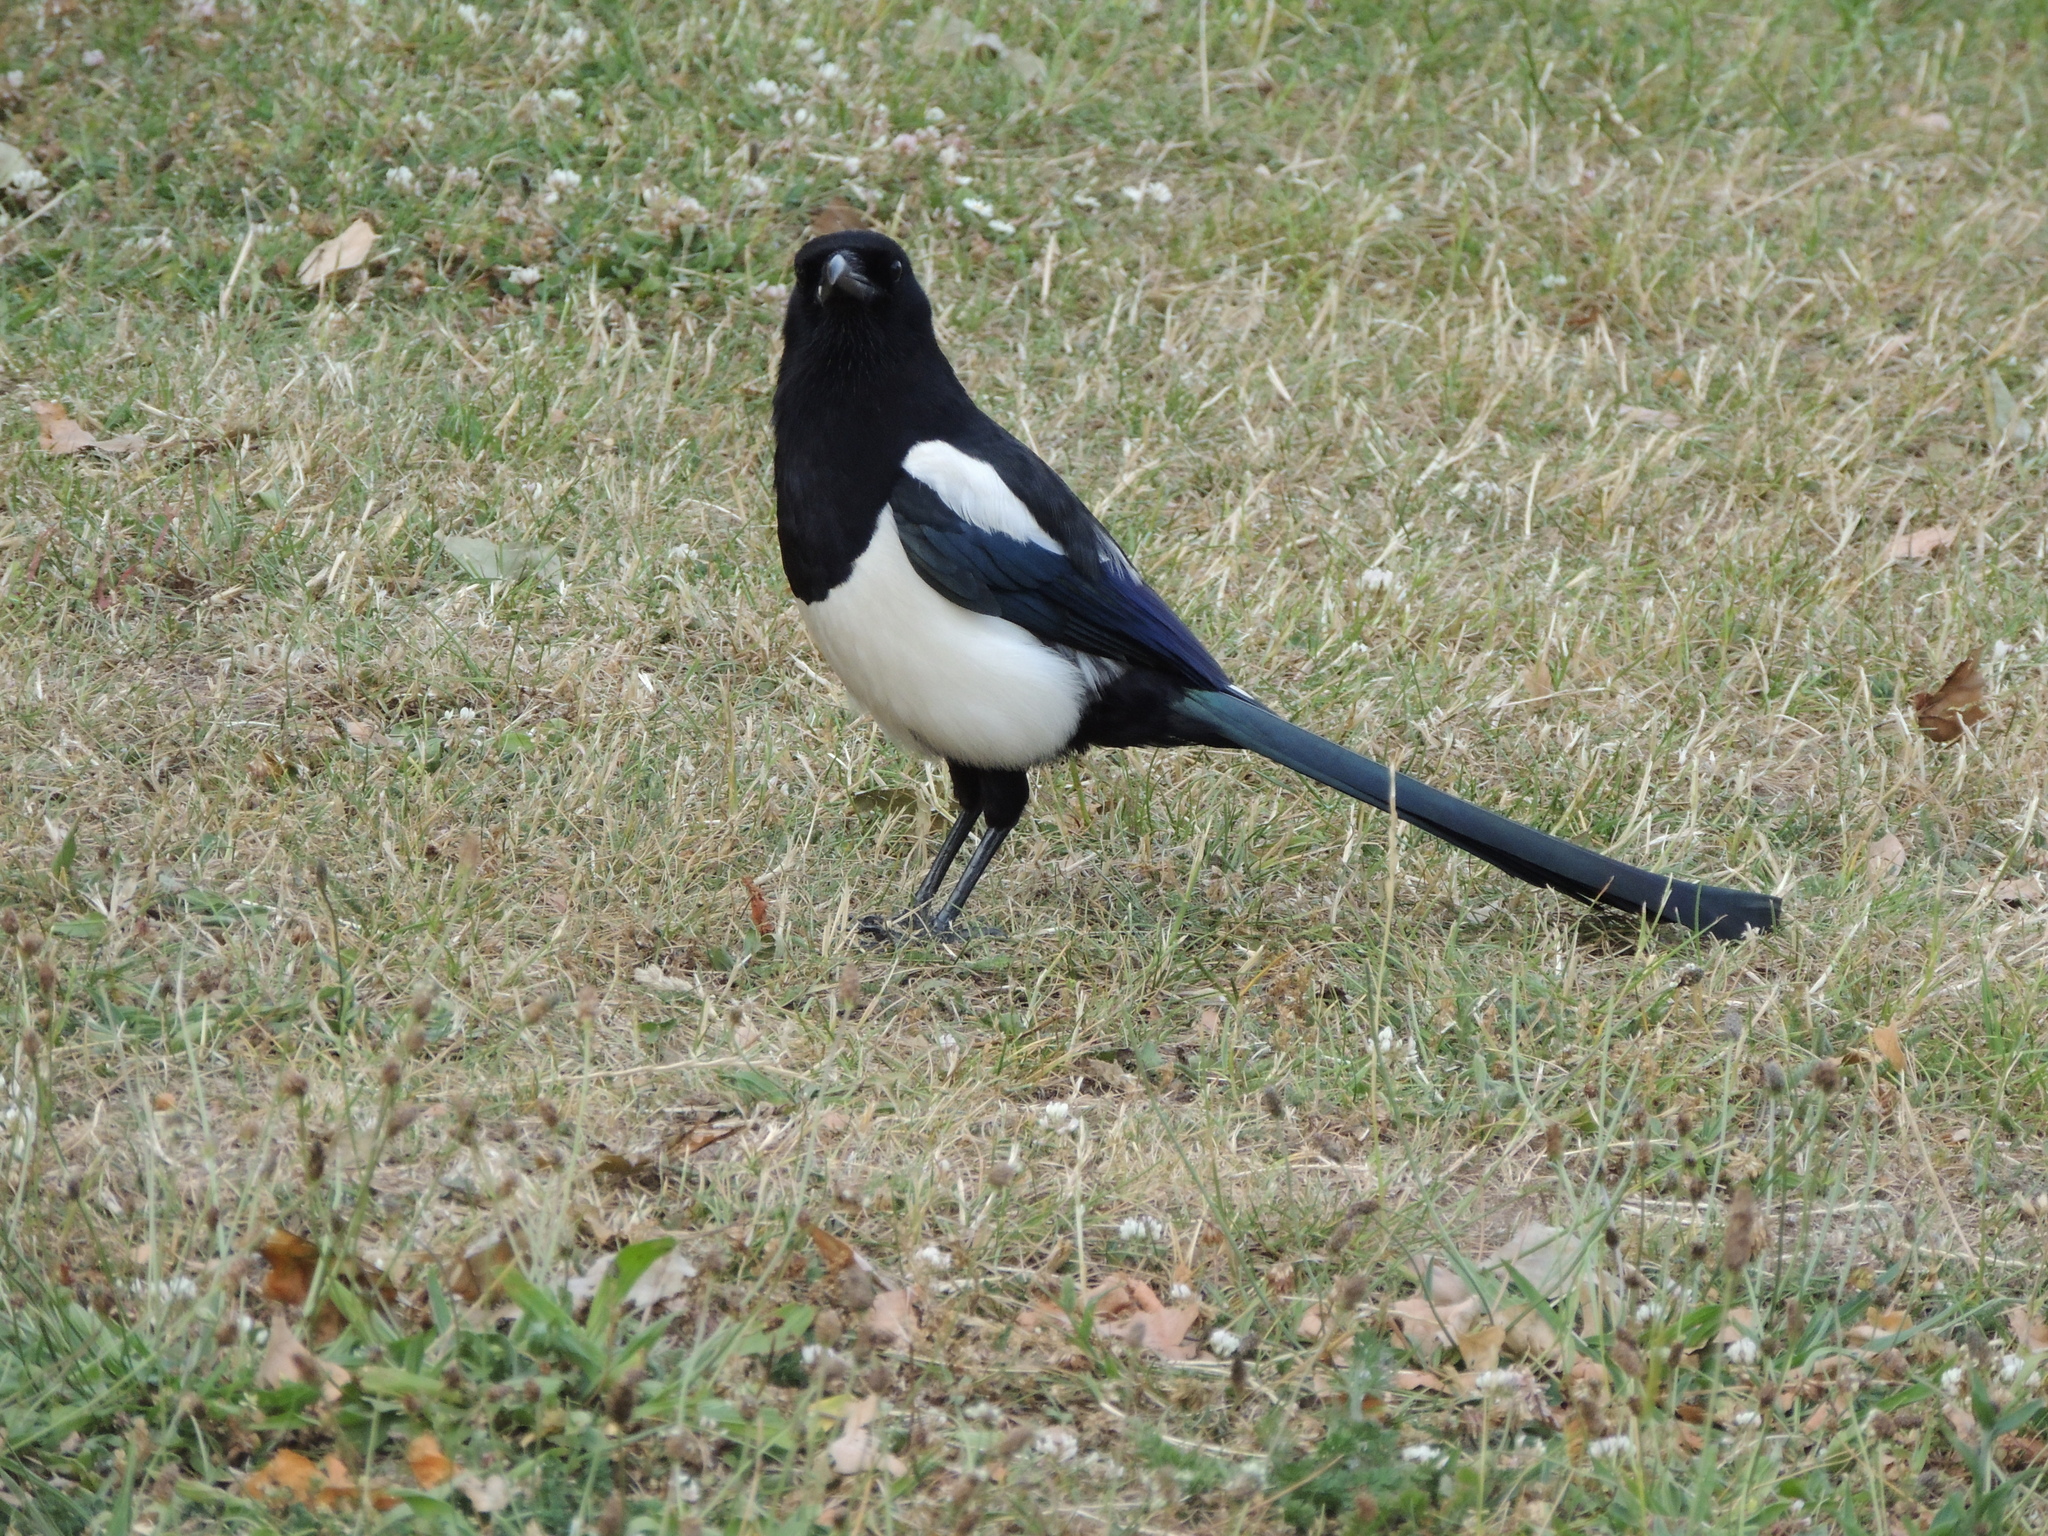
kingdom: Animalia
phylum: Chordata
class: Aves
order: Passeriformes
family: Corvidae
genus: Pica
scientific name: Pica pica
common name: Eurasian magpie
